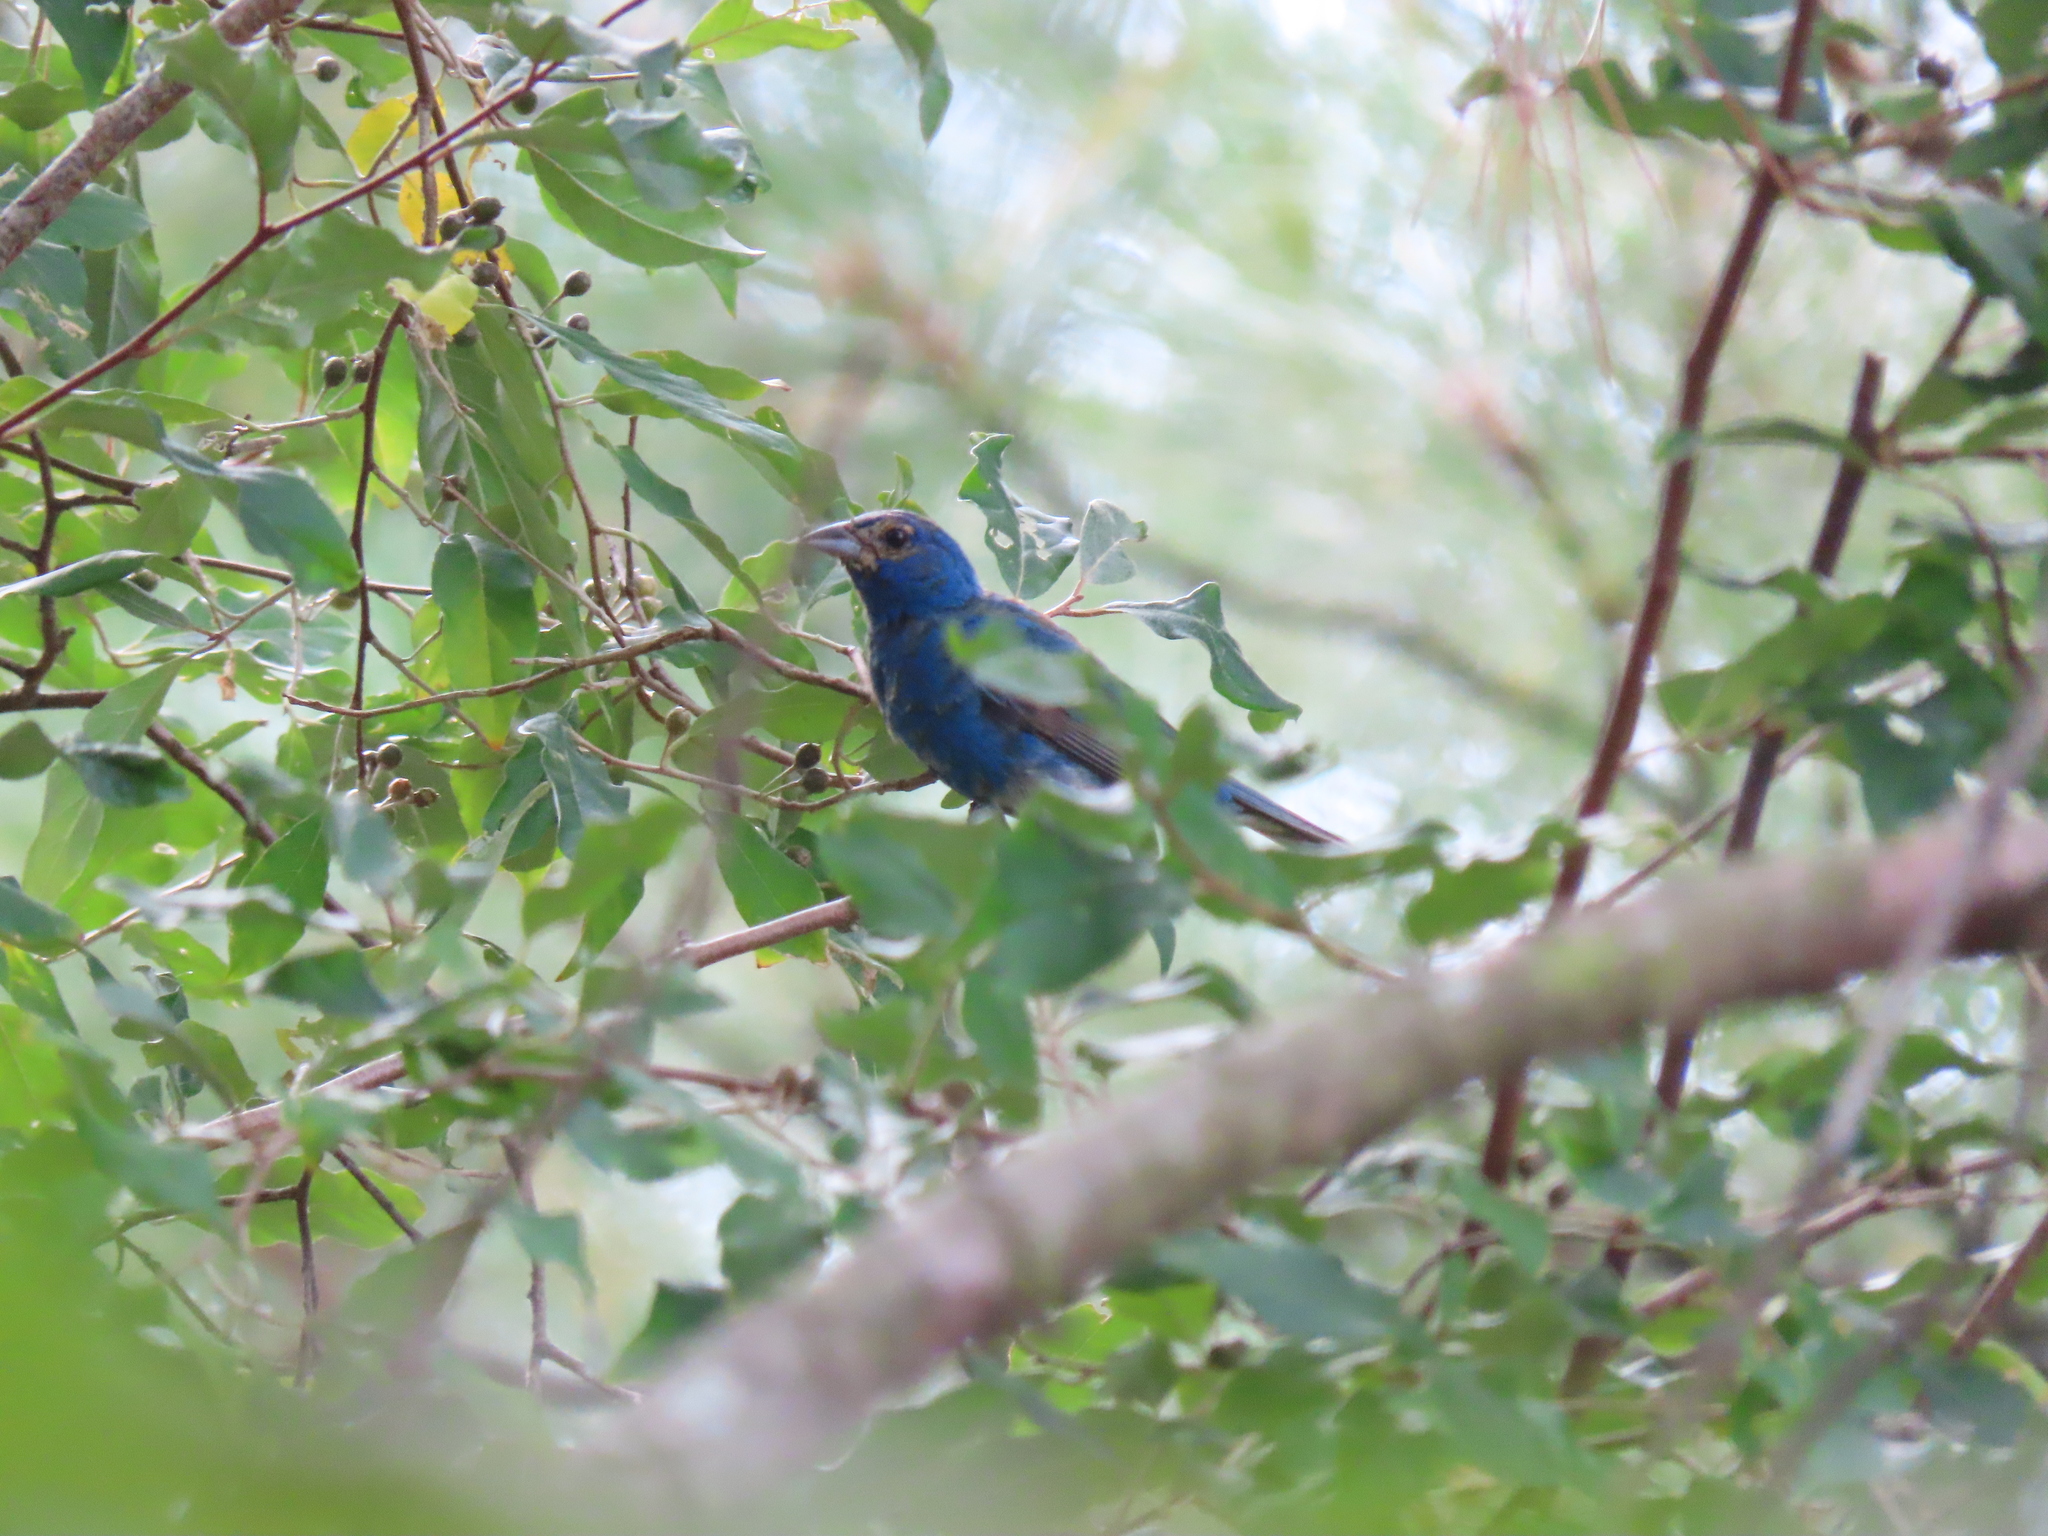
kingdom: Animalia
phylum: Chordata
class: Aves
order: Passeriformes
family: Cardinalidae
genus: Passerina
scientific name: Passerina cyanea
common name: Indigo bunting
